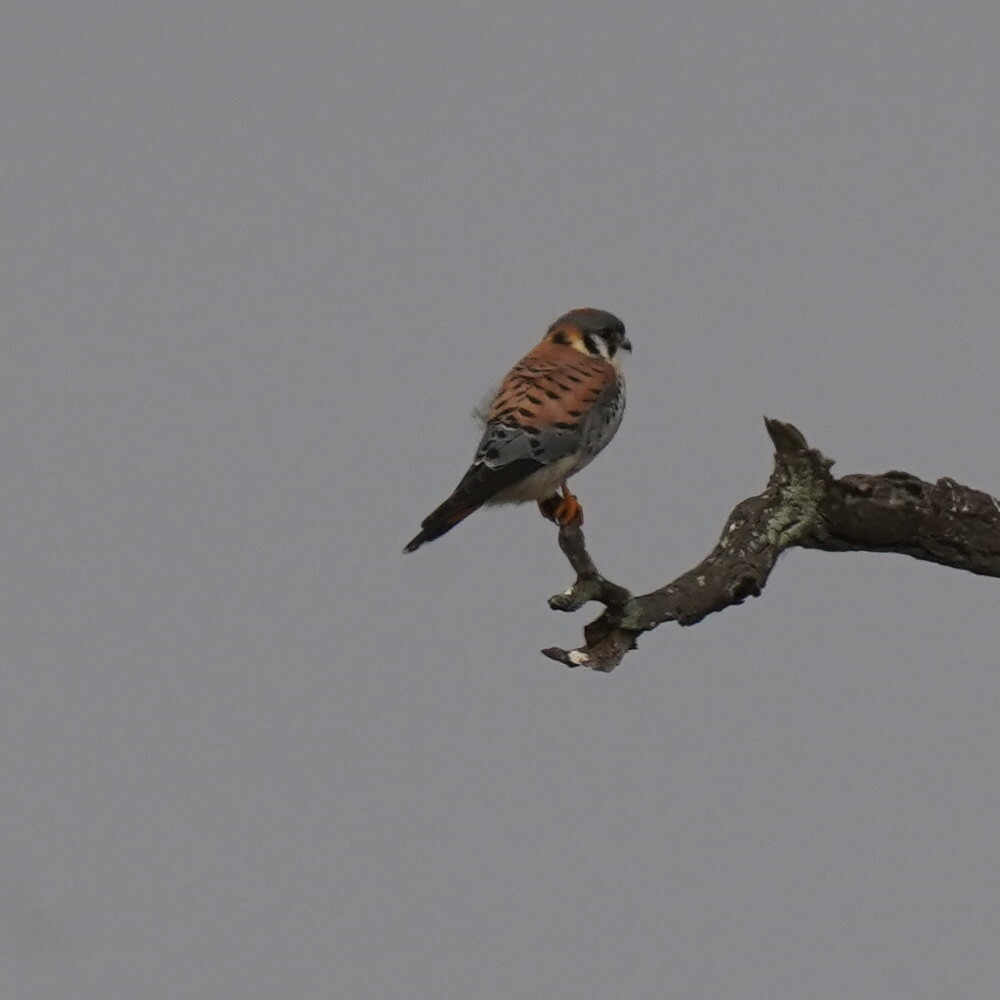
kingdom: Animalia
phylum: Chordata
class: Aves
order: Falconiformes
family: Falconidae
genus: Falco
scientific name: Falco sparverius
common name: American kestrel
